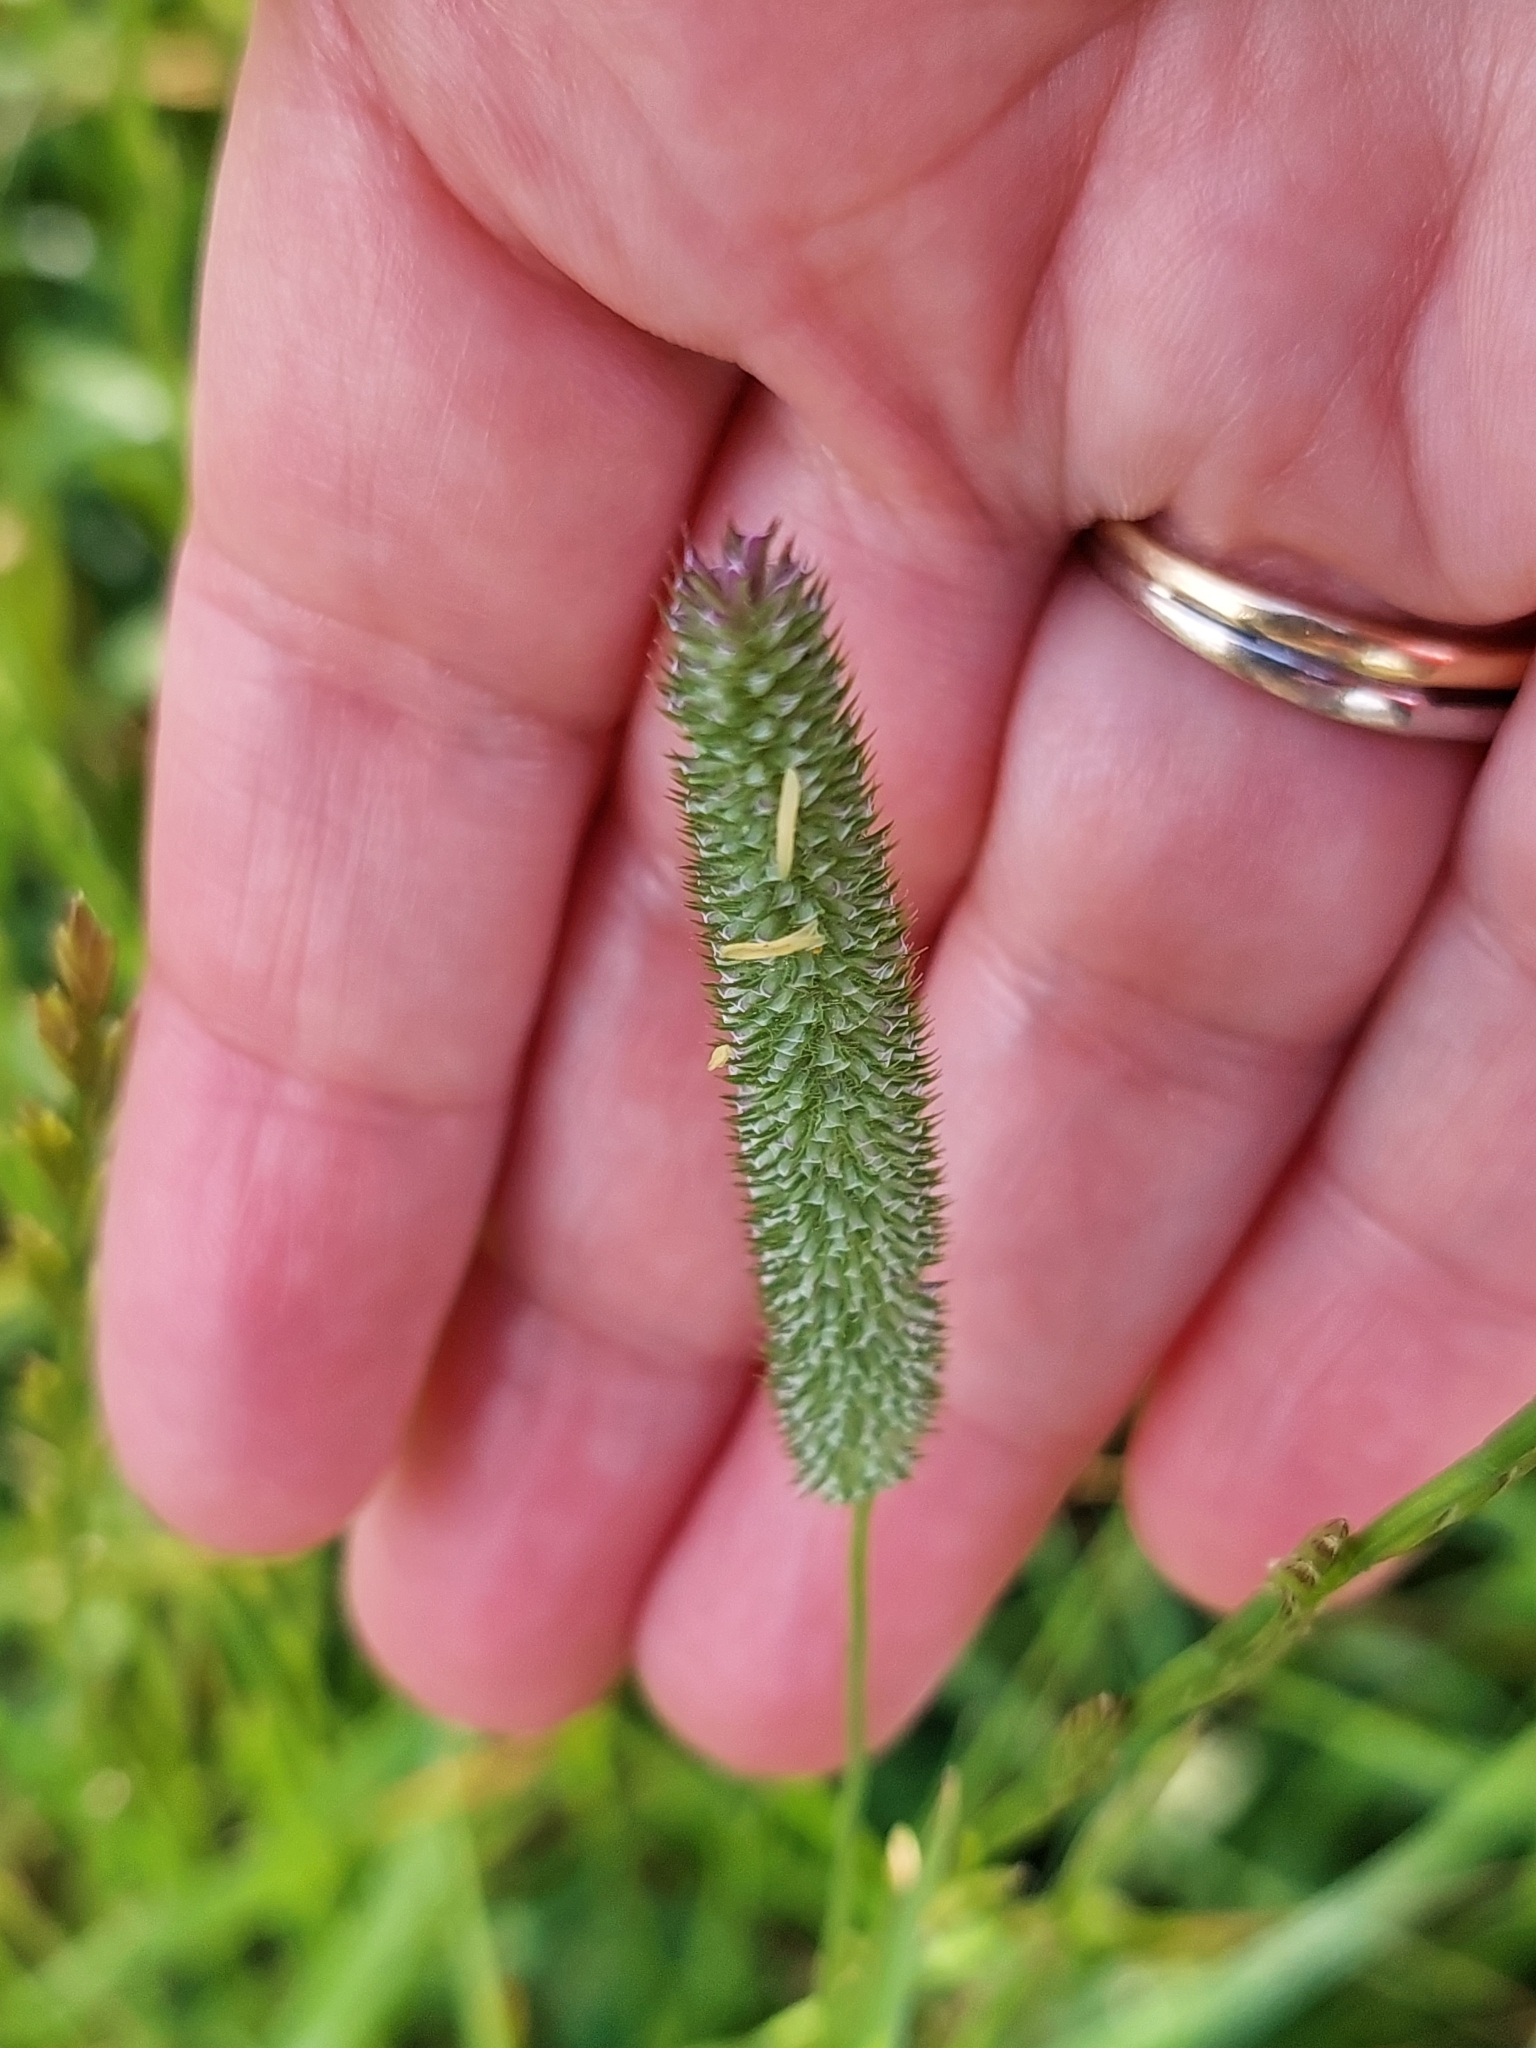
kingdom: Plantae
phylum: Tracheophyta
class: Liliopsida
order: Poales
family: Poaceae
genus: Phleum
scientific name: Phleum pratense
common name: Timothy grass
